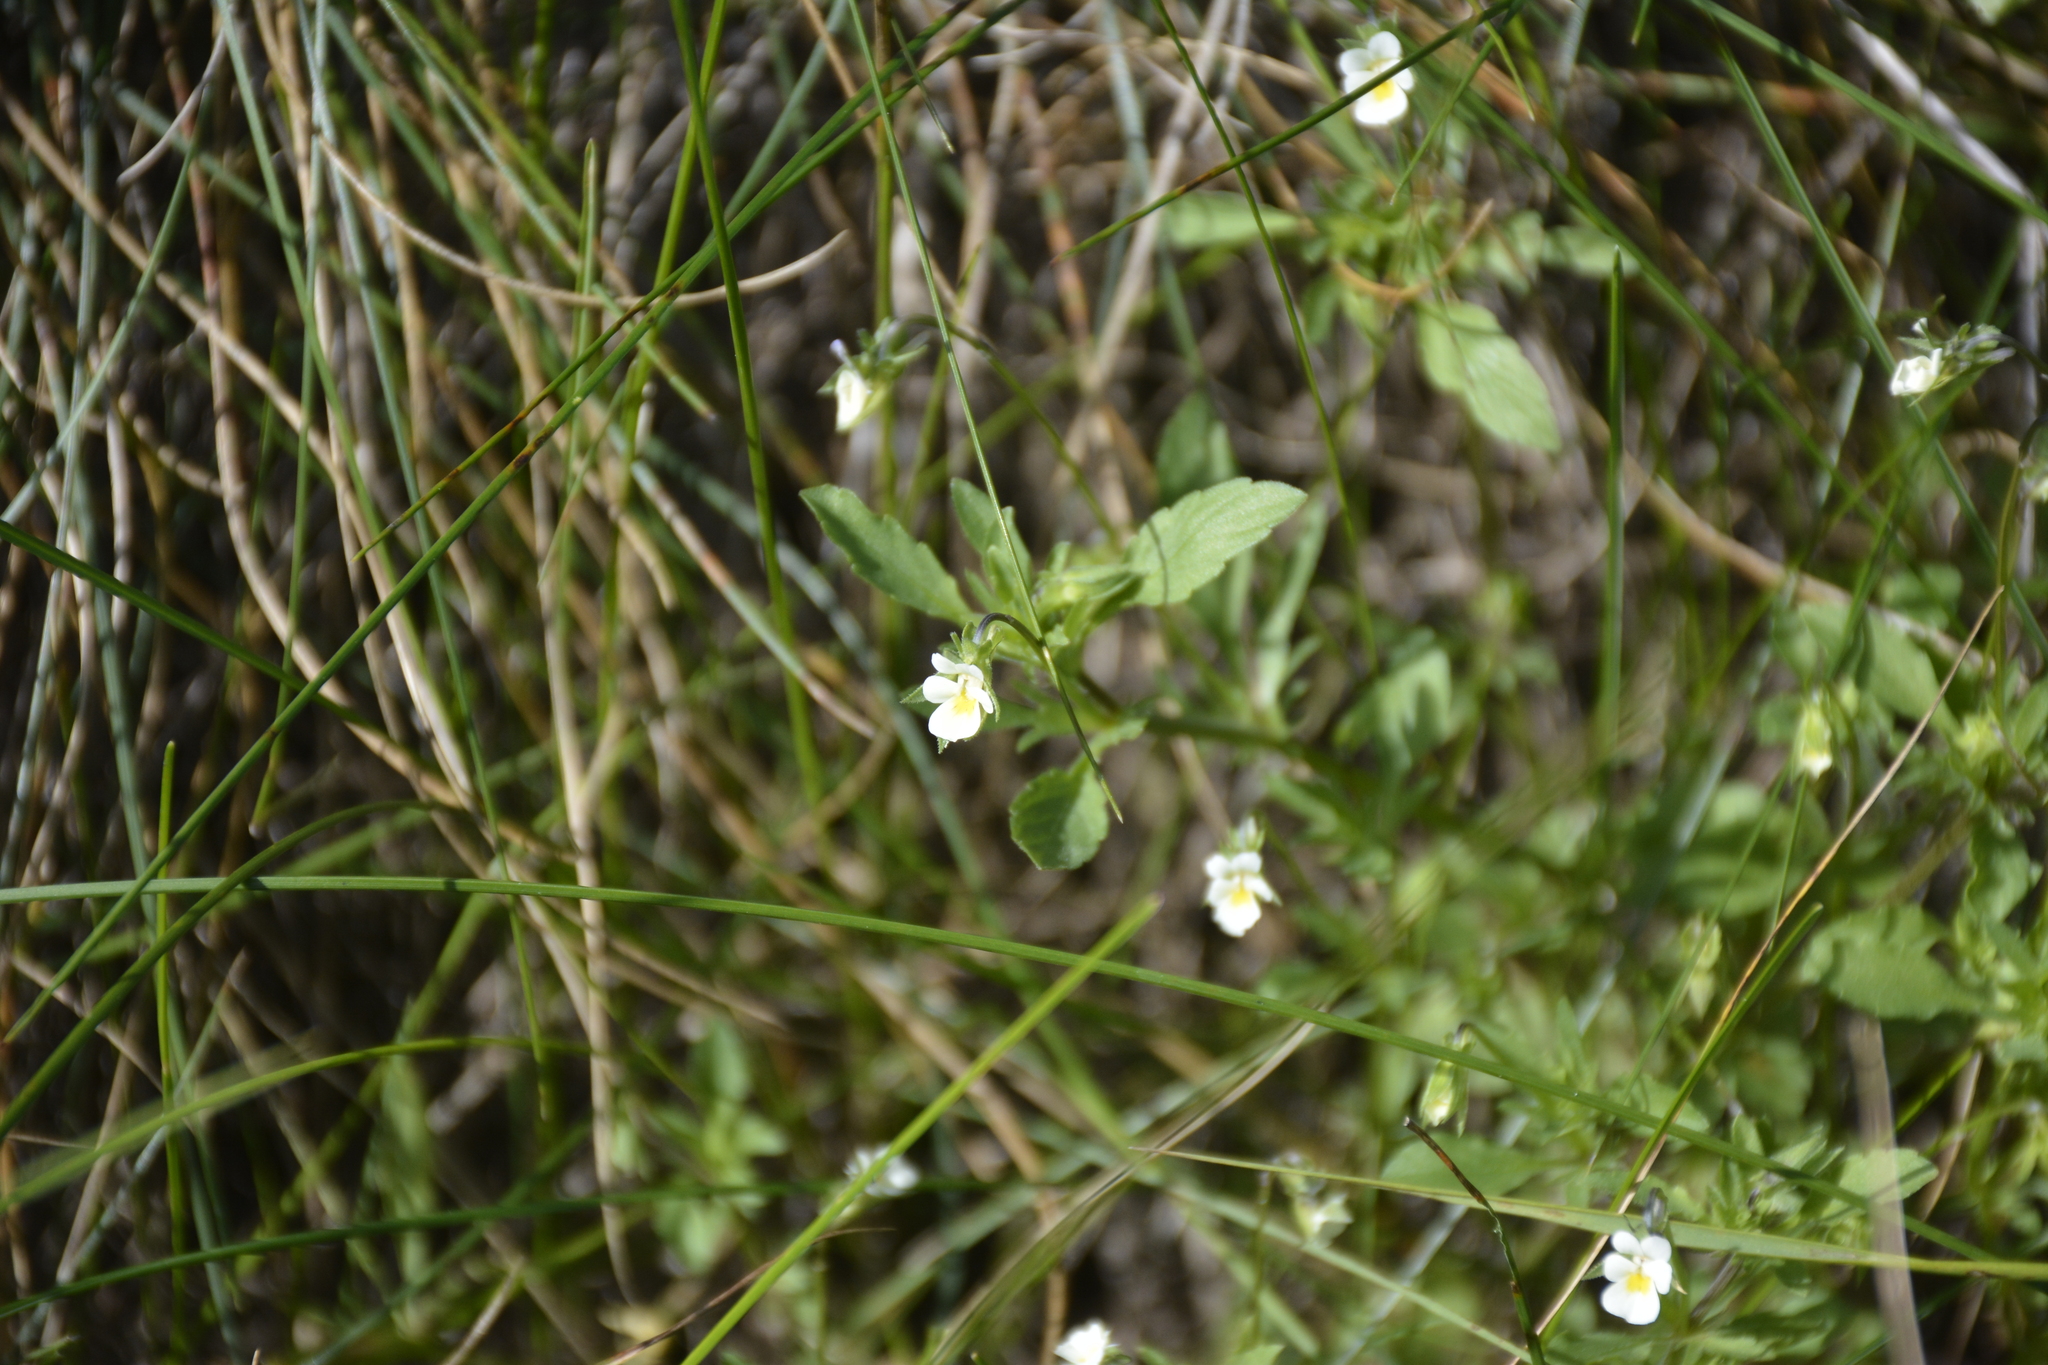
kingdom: Plantae
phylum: Tracheophyta
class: Magnoliopsida
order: Malpighiales
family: Violaceae
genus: Viola
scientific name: Viola arvensis
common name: Field pansy
